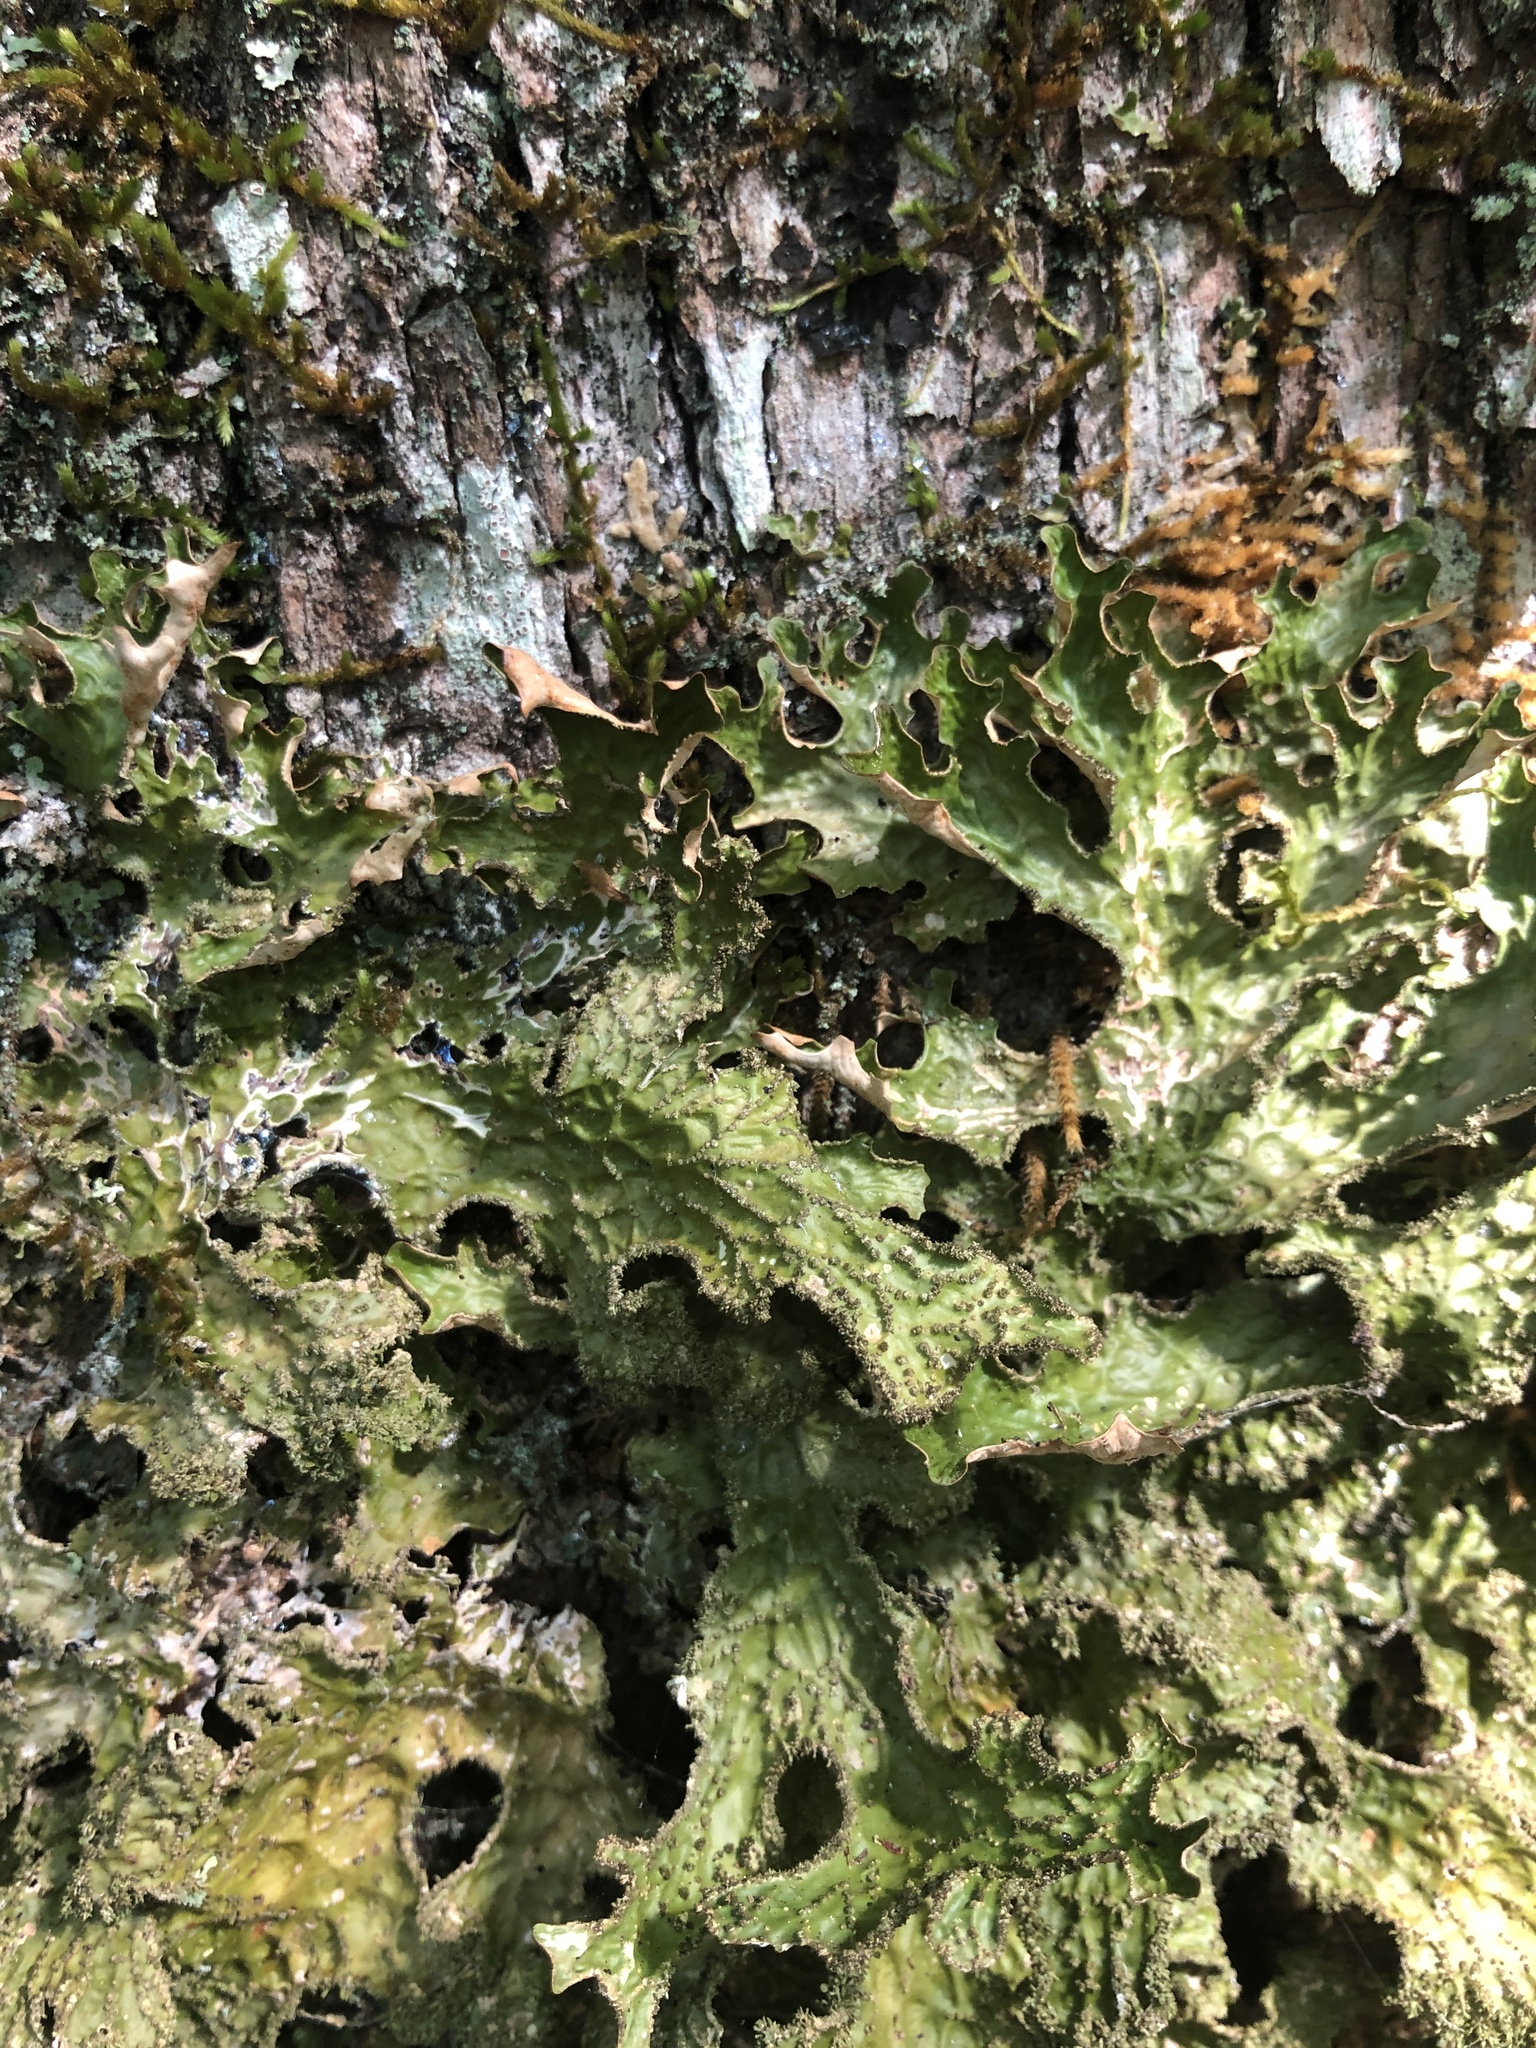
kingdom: Fungi
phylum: Ascomycota
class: Lecanoromycetes
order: Peltigerales
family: Lobariaceae
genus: Lobaria
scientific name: Lobaria pulmonaria
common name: Lungwort
